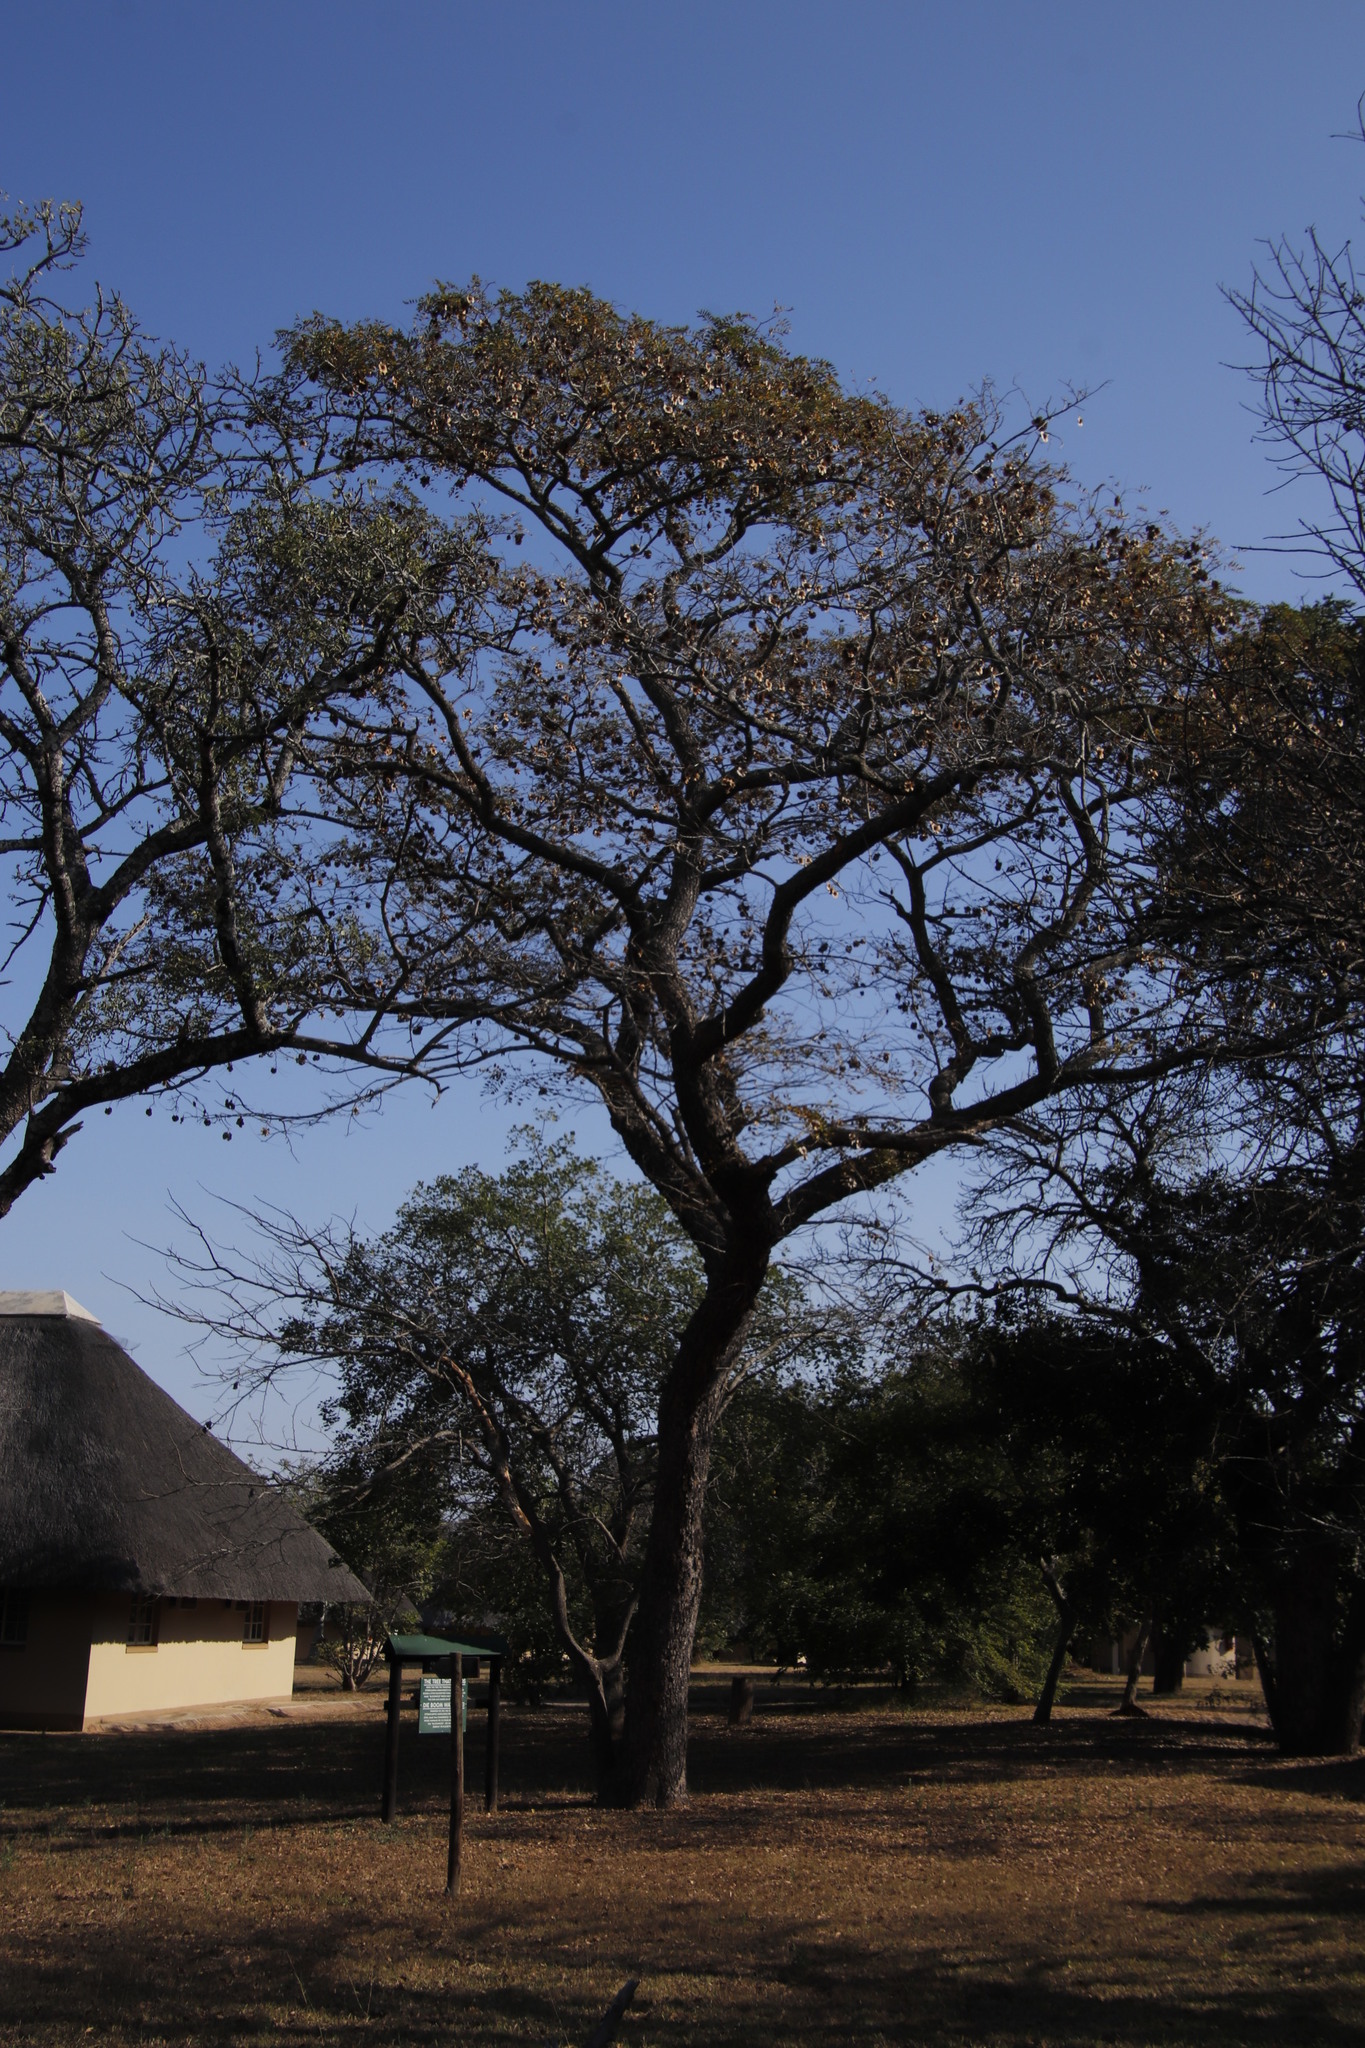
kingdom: Plantae
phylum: Tracheophyta
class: Magnoliopsida
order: Fabales
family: Fabaceae
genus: Pterocarpus
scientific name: Pterocarpus angolensis
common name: Bloodwood tree
